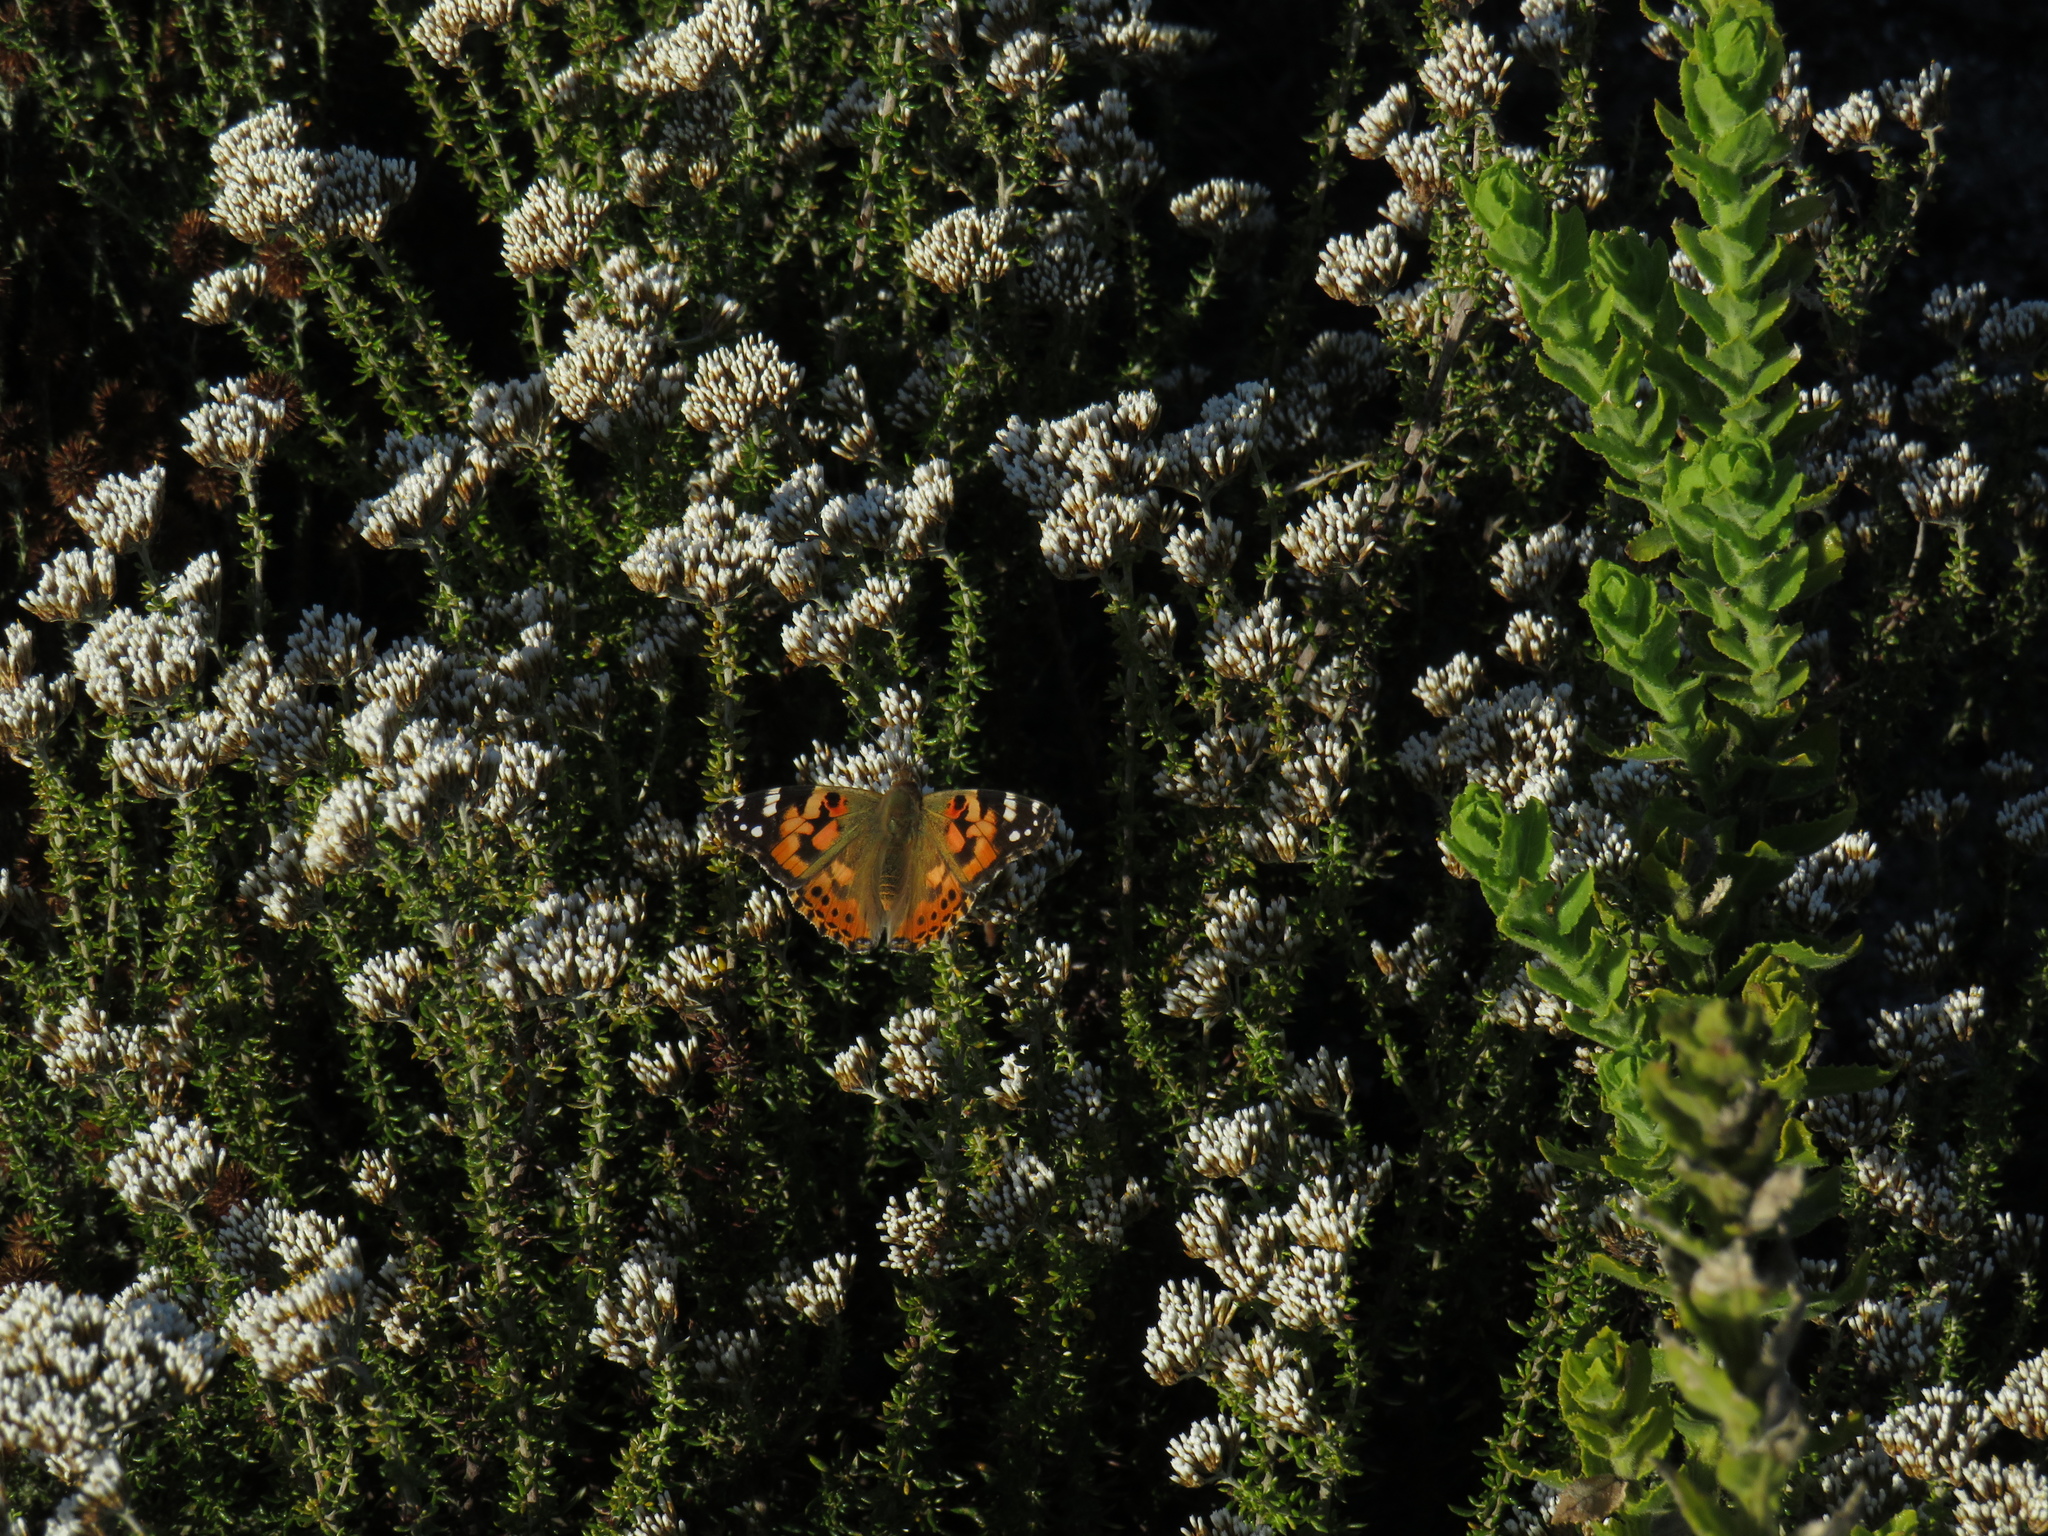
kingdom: Animalia
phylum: Arthropoda
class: Insecta
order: Lepidoptera
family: Nymphalidae
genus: Vanessa
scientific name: Vanessa cardui
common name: Painted lady
